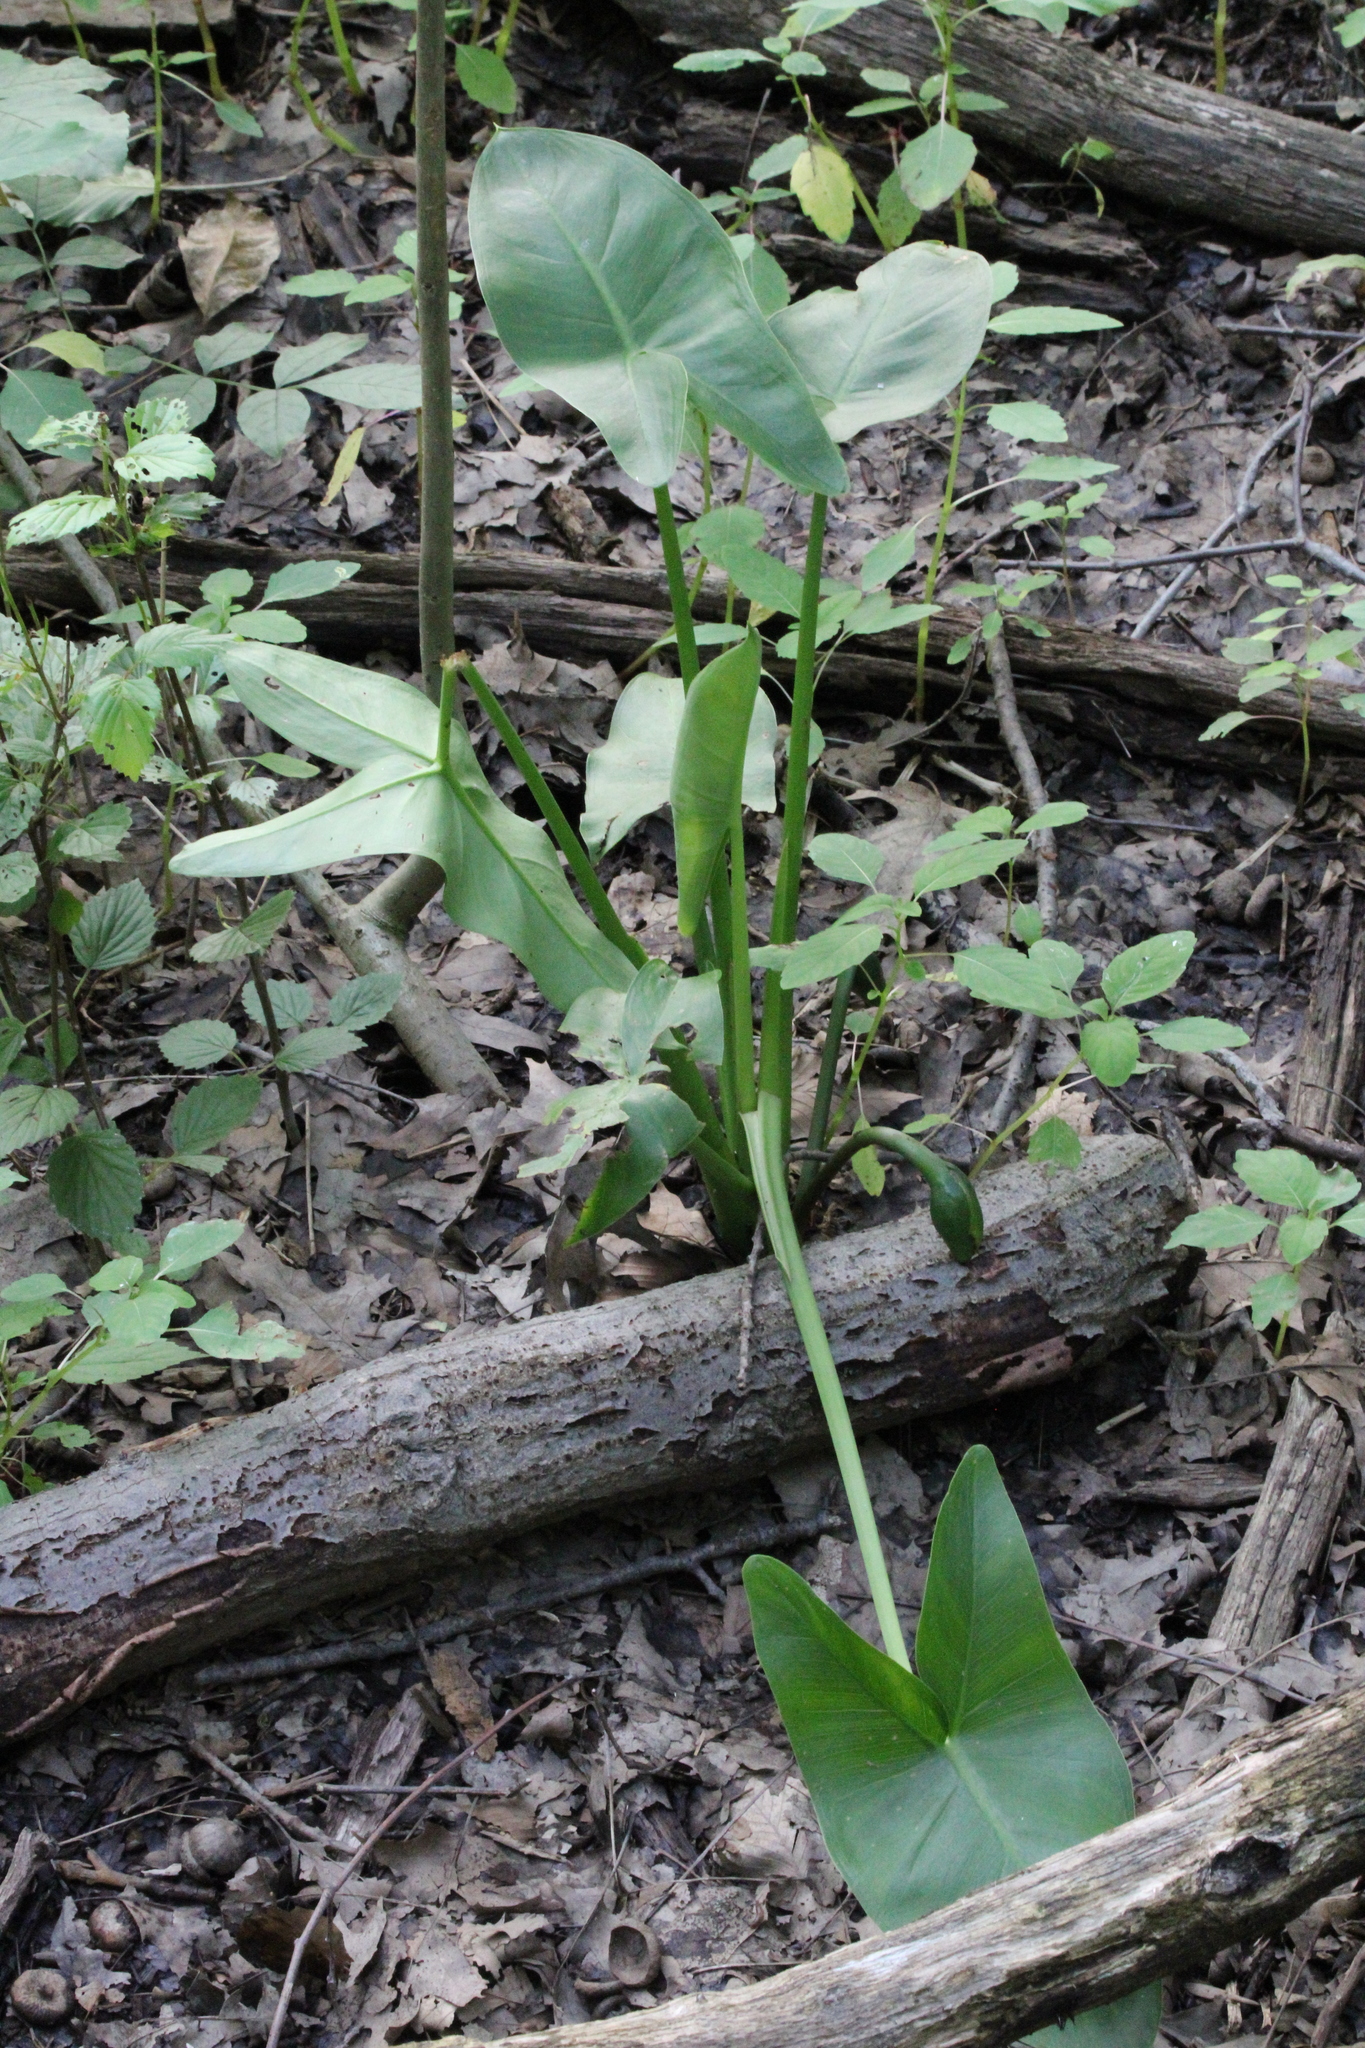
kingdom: Plantae
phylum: Tracheophyta
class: Liliopsida
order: Alismatales
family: Araceae
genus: Peltandra
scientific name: Peltandra virginica
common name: Arrow arum
